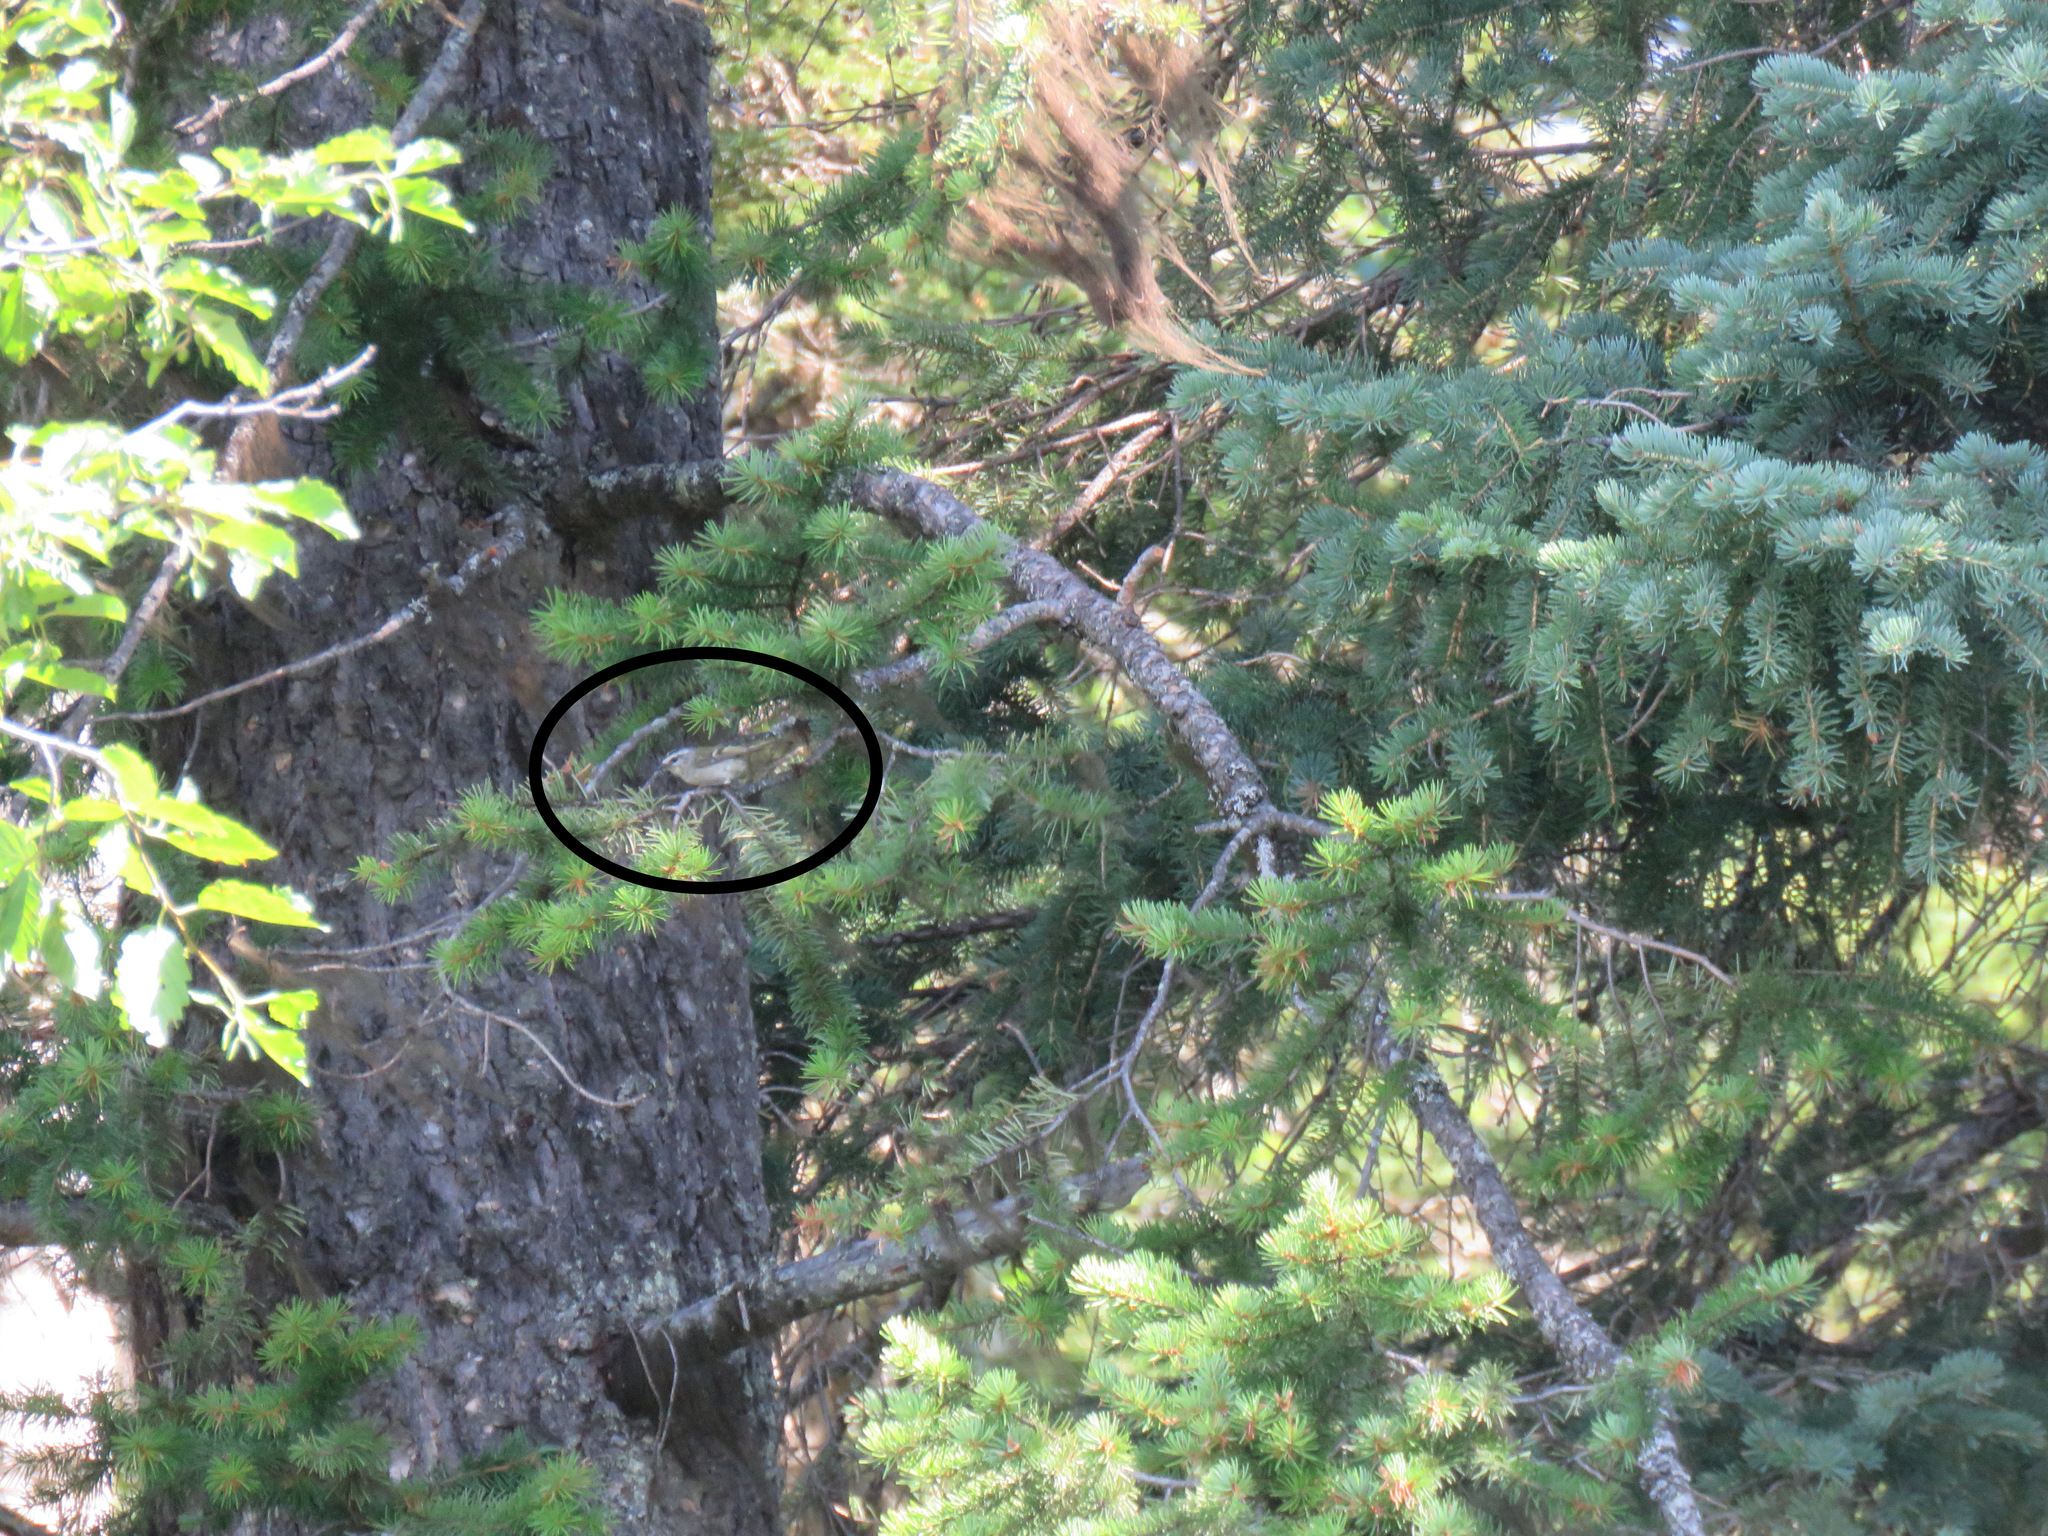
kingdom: Animalia
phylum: Chordata
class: Aves
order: Passeriformes
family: Regulidae
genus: Regulus
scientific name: Regulus satrapa
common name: Golden-crowned kinglet
